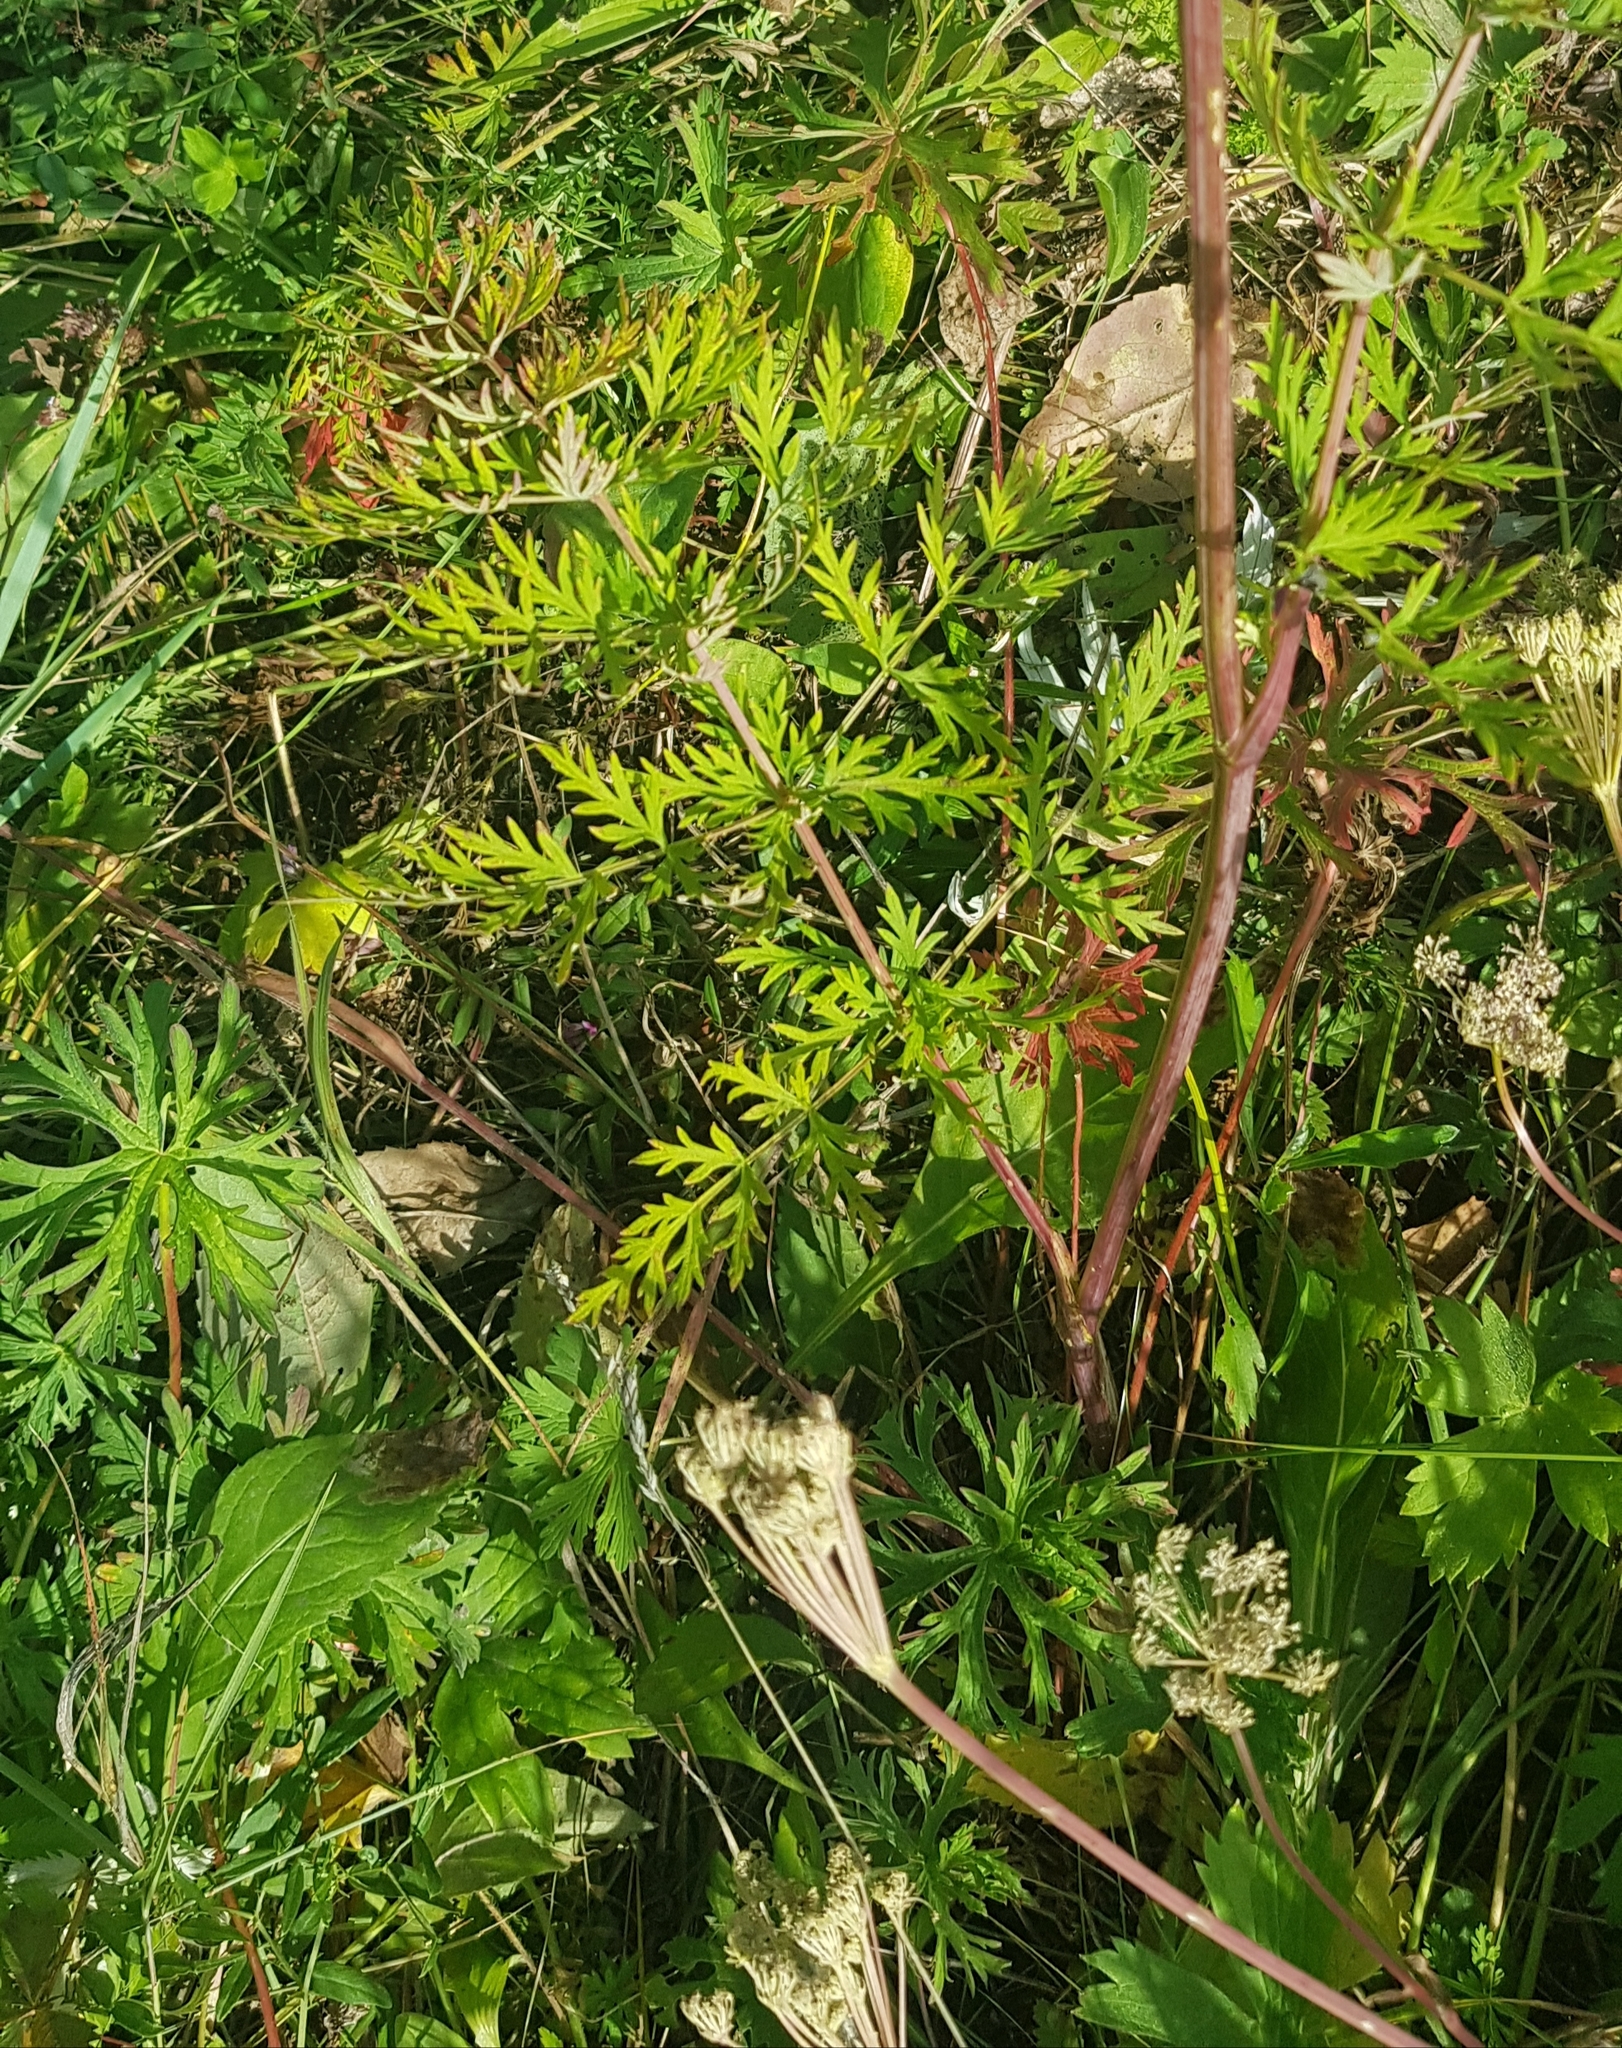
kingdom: Plantae
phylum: Tracheophyta
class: Magnoliopsida
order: Apiales
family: Apiaceae
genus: Kitagawia
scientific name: Kitagawia terebinthacea
